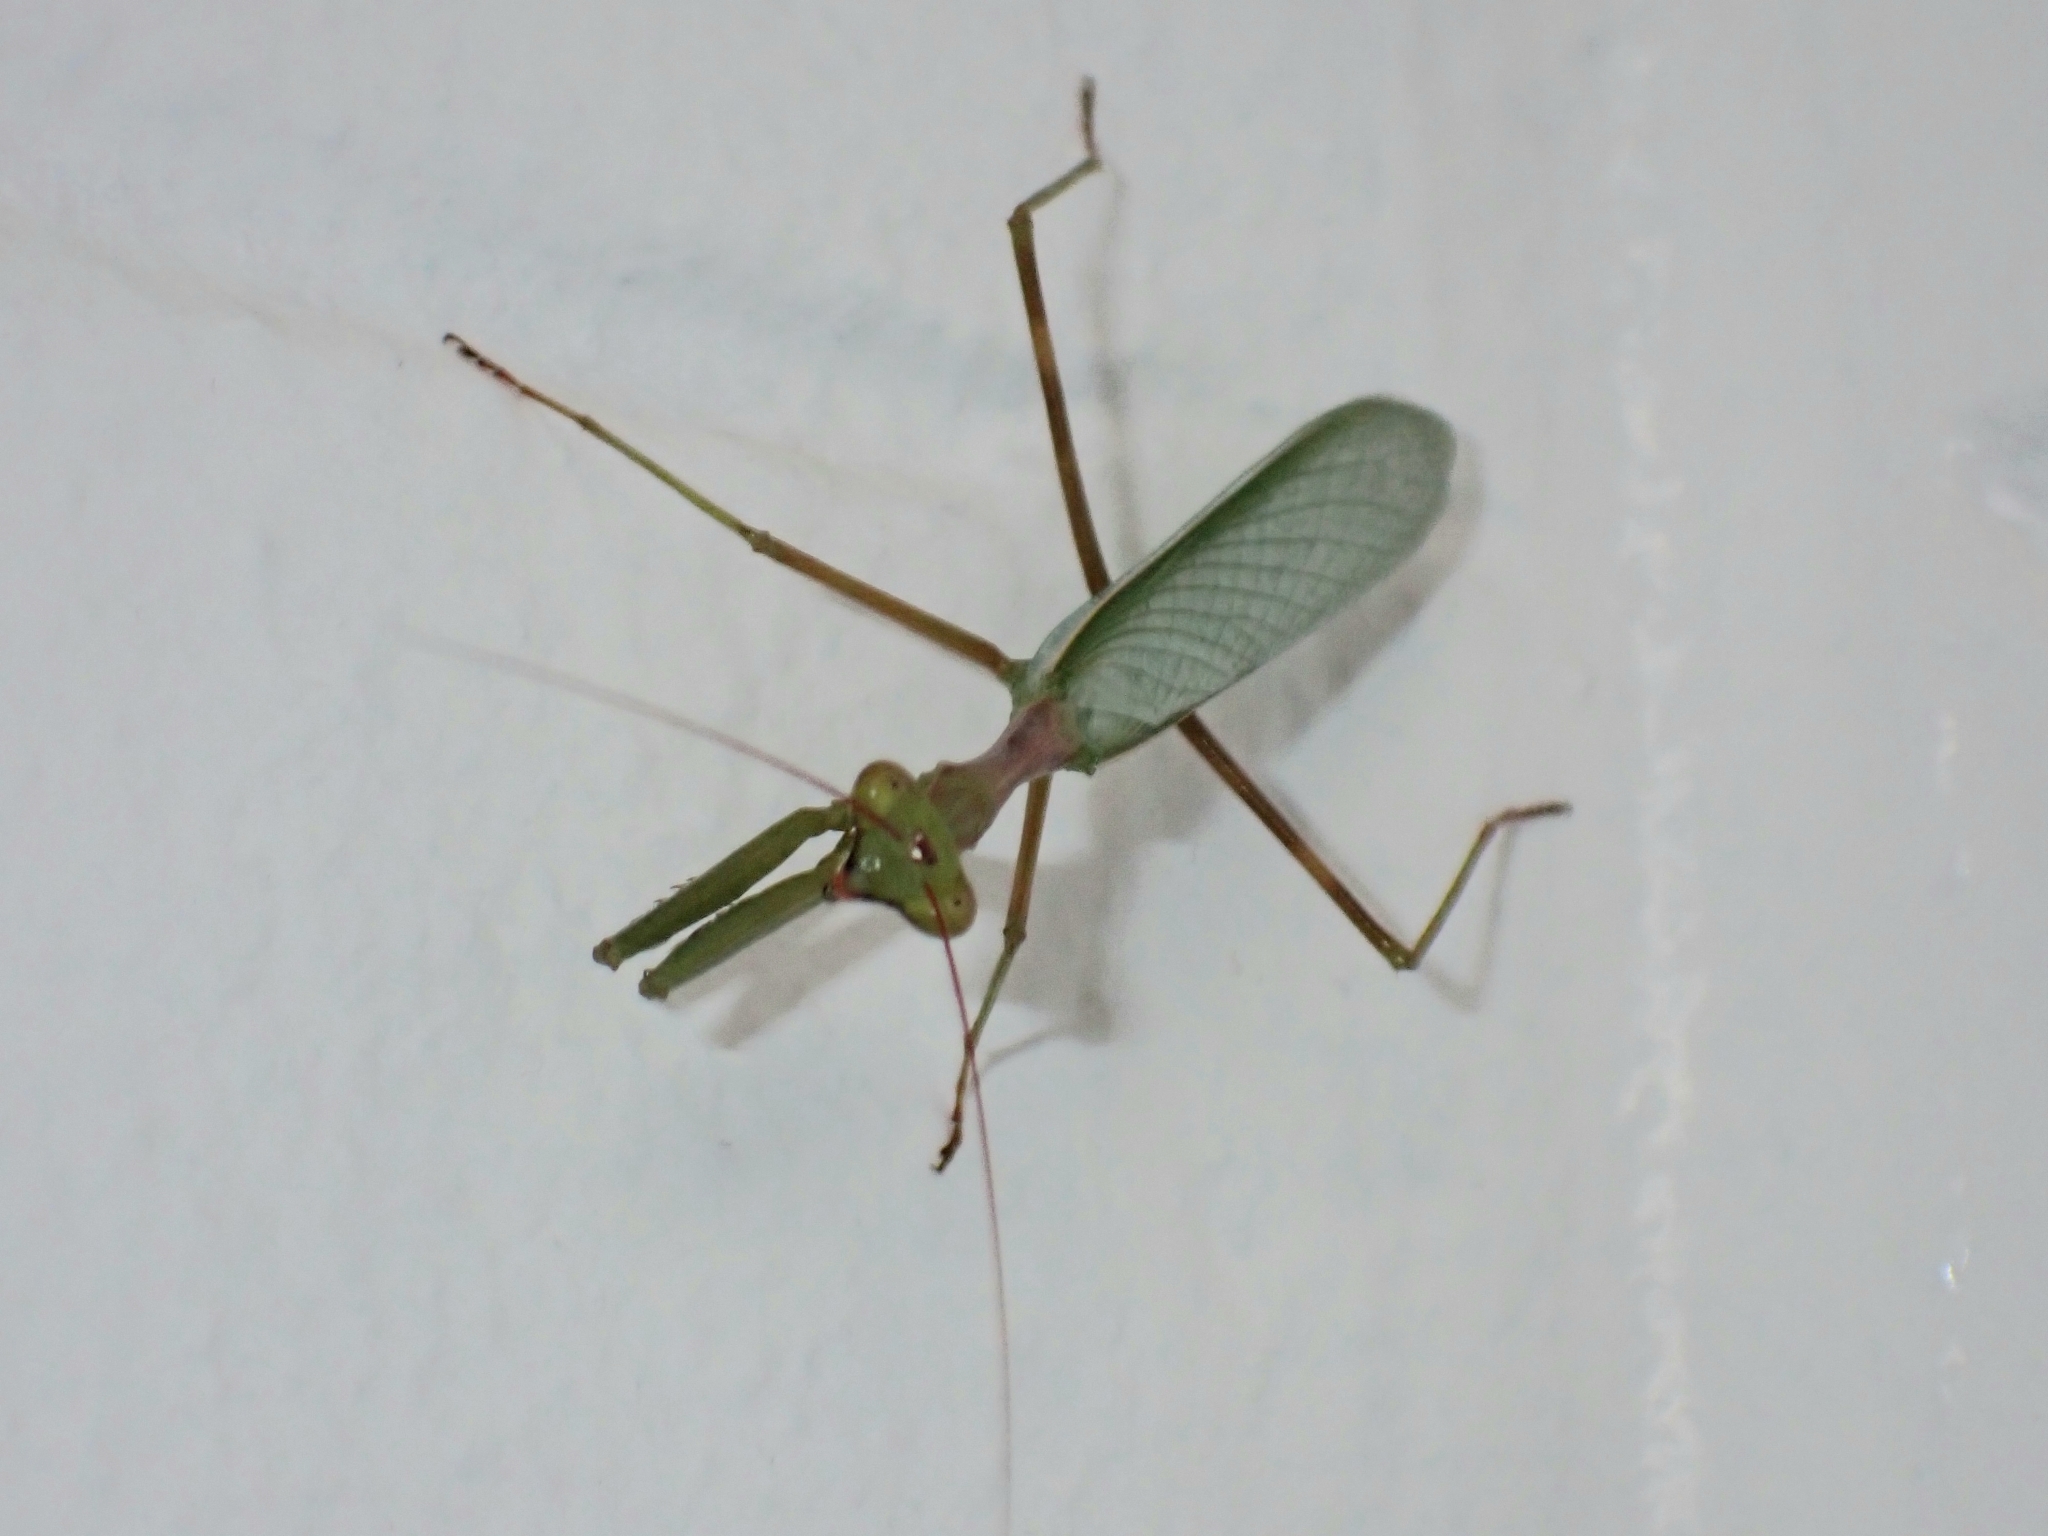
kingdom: Animalia
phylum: Arthropoda
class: Insecta
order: Mantodea
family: Miomantidae
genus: Miomantis
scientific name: Miomantis caffra
